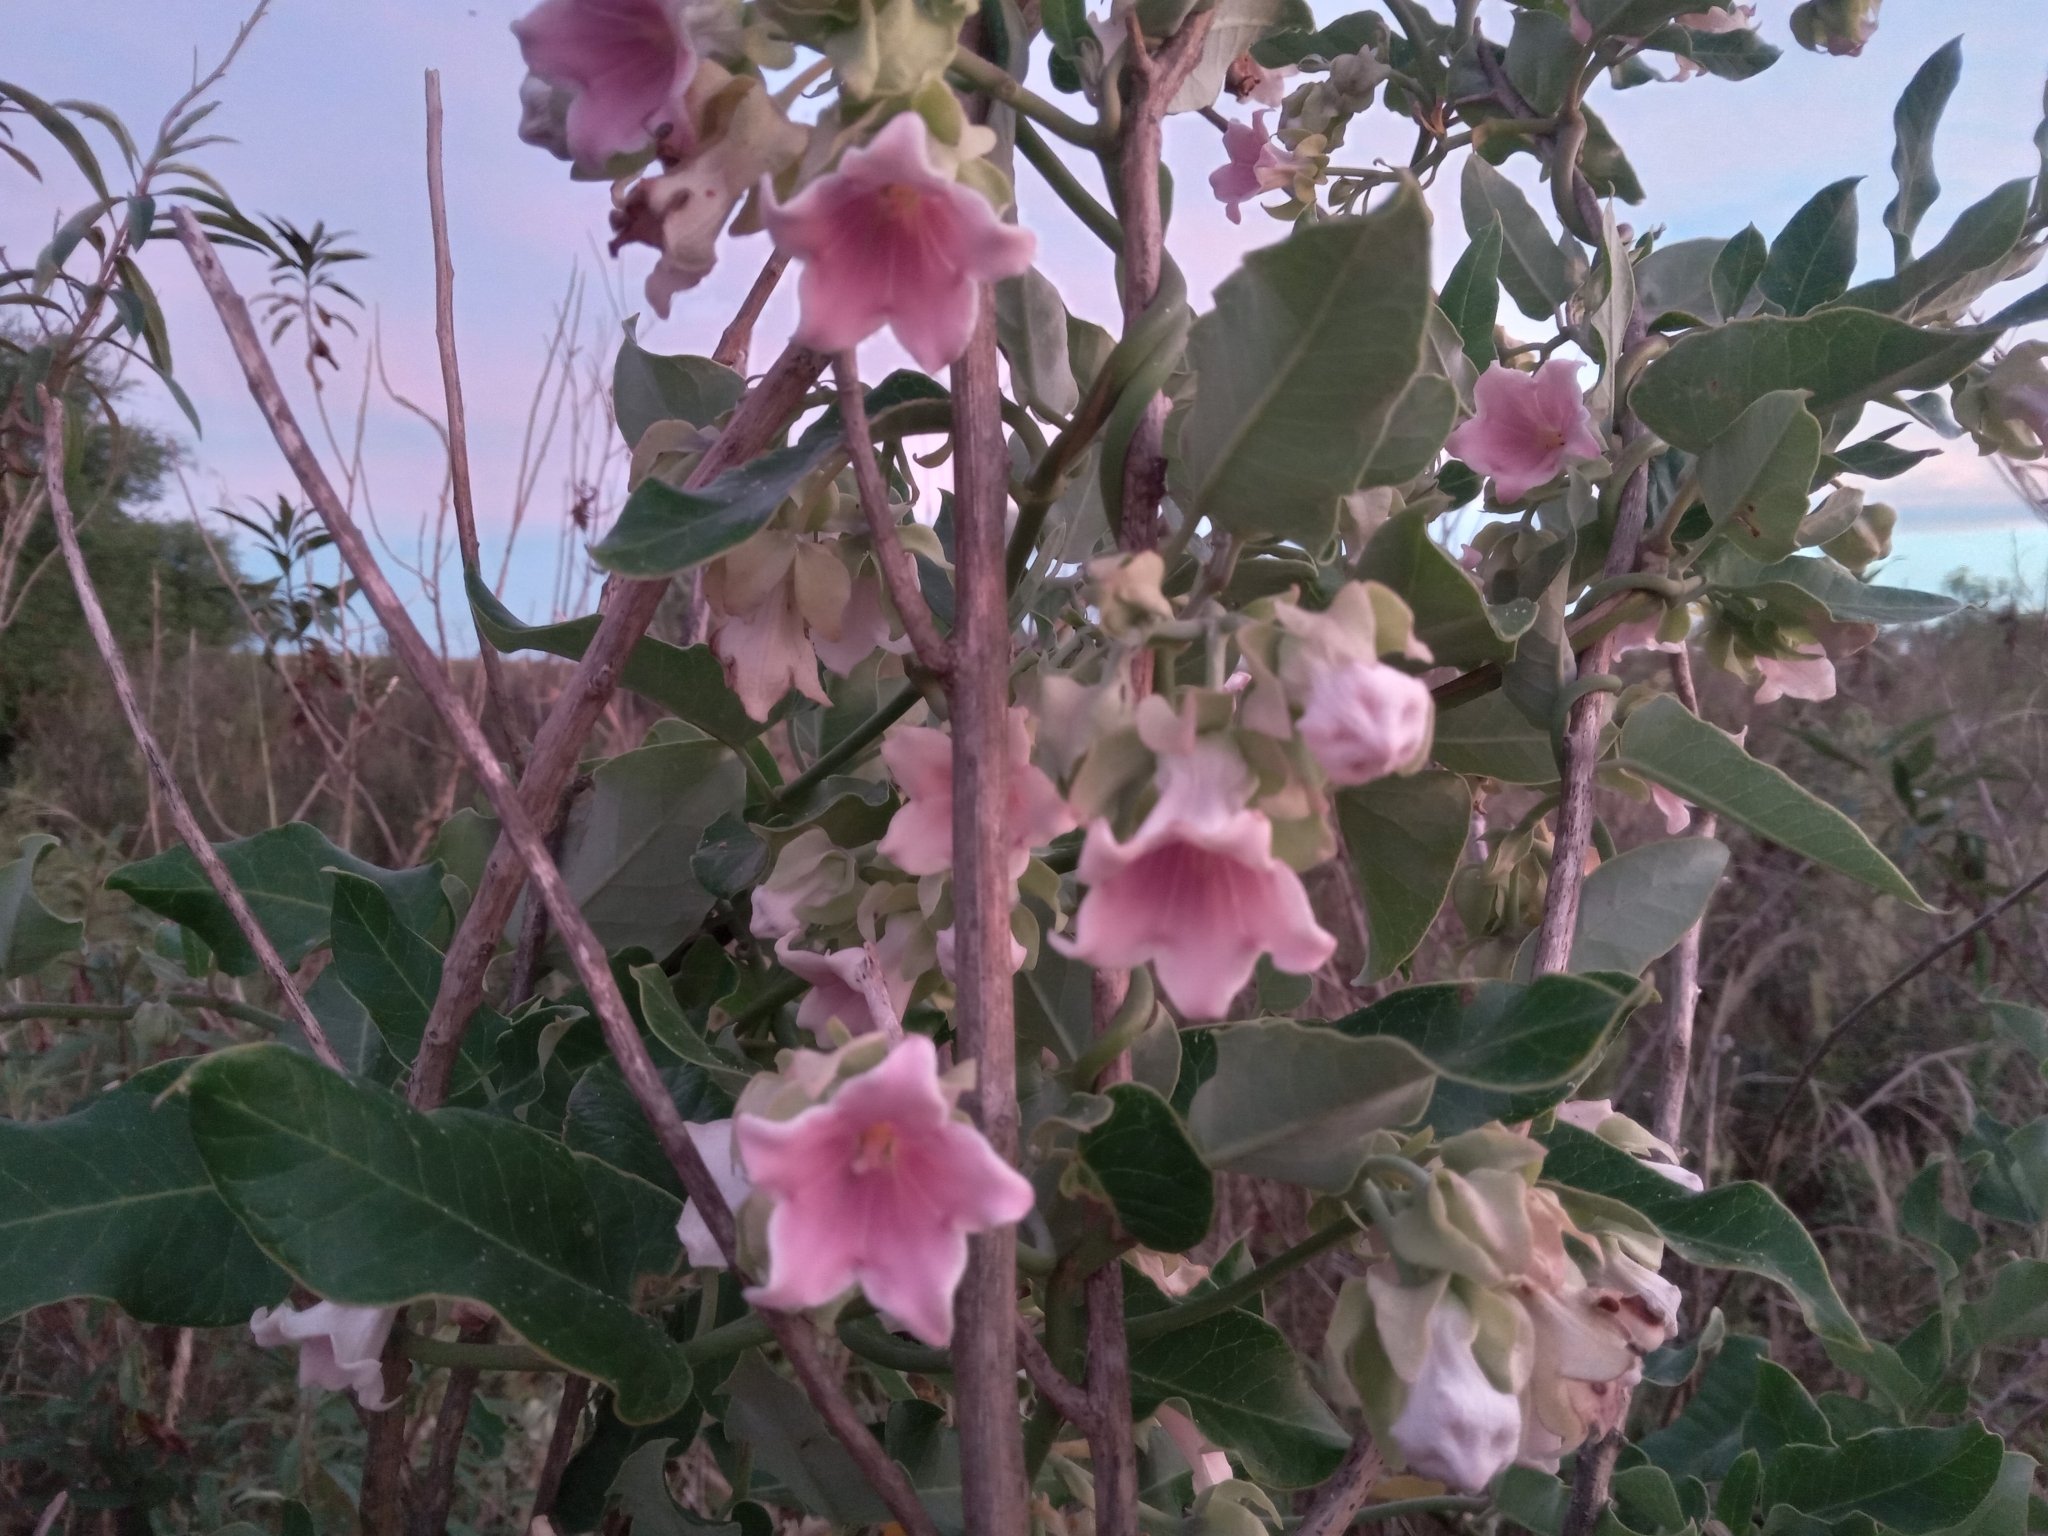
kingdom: Plantae
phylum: Tracheophyta
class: Magnoliopsida
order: Gentianales
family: Apocynaceae
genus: Araujia
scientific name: Araujia sericifera
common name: White bladderflower
